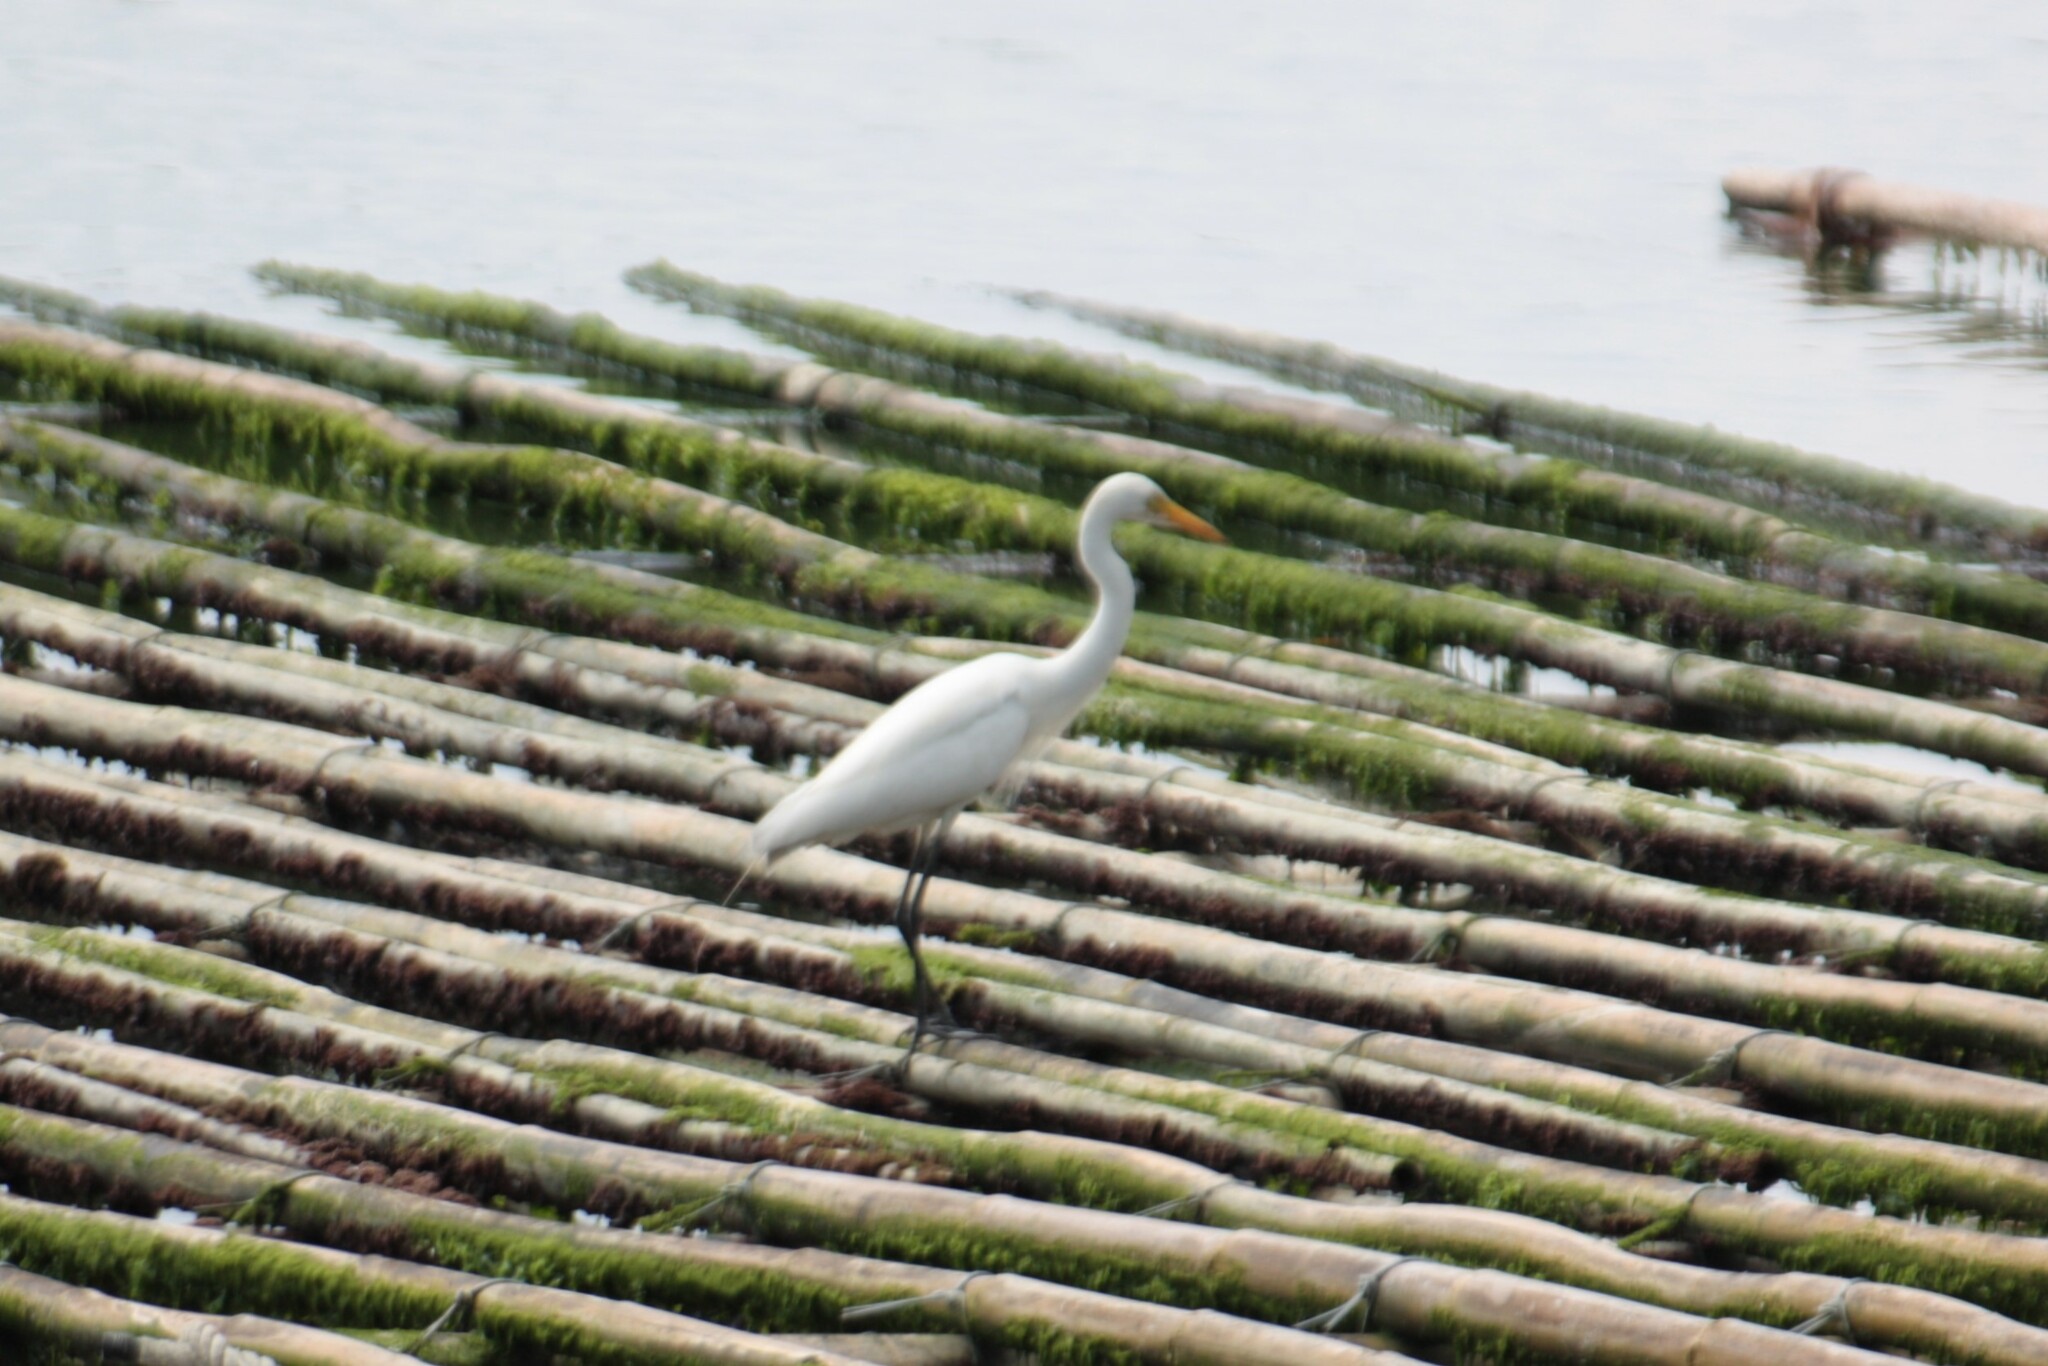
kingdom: Animalia
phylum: Chordata
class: Aves
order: Pelecaniformes
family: Ardeidae
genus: Egretta
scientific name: Egretta intermedia
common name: Intermediate egret
